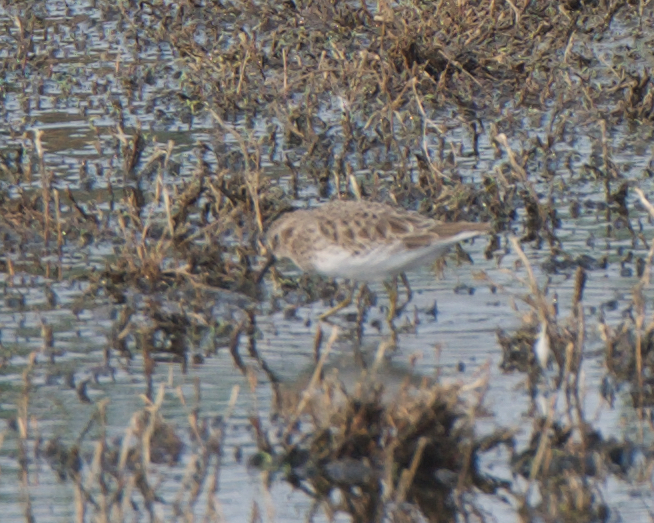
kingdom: Animalia
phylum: Chordata
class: Aves
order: Charadriiformes
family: Scolopacidae
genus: Calidris
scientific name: Calidris minutilla
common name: Least sandpiper
